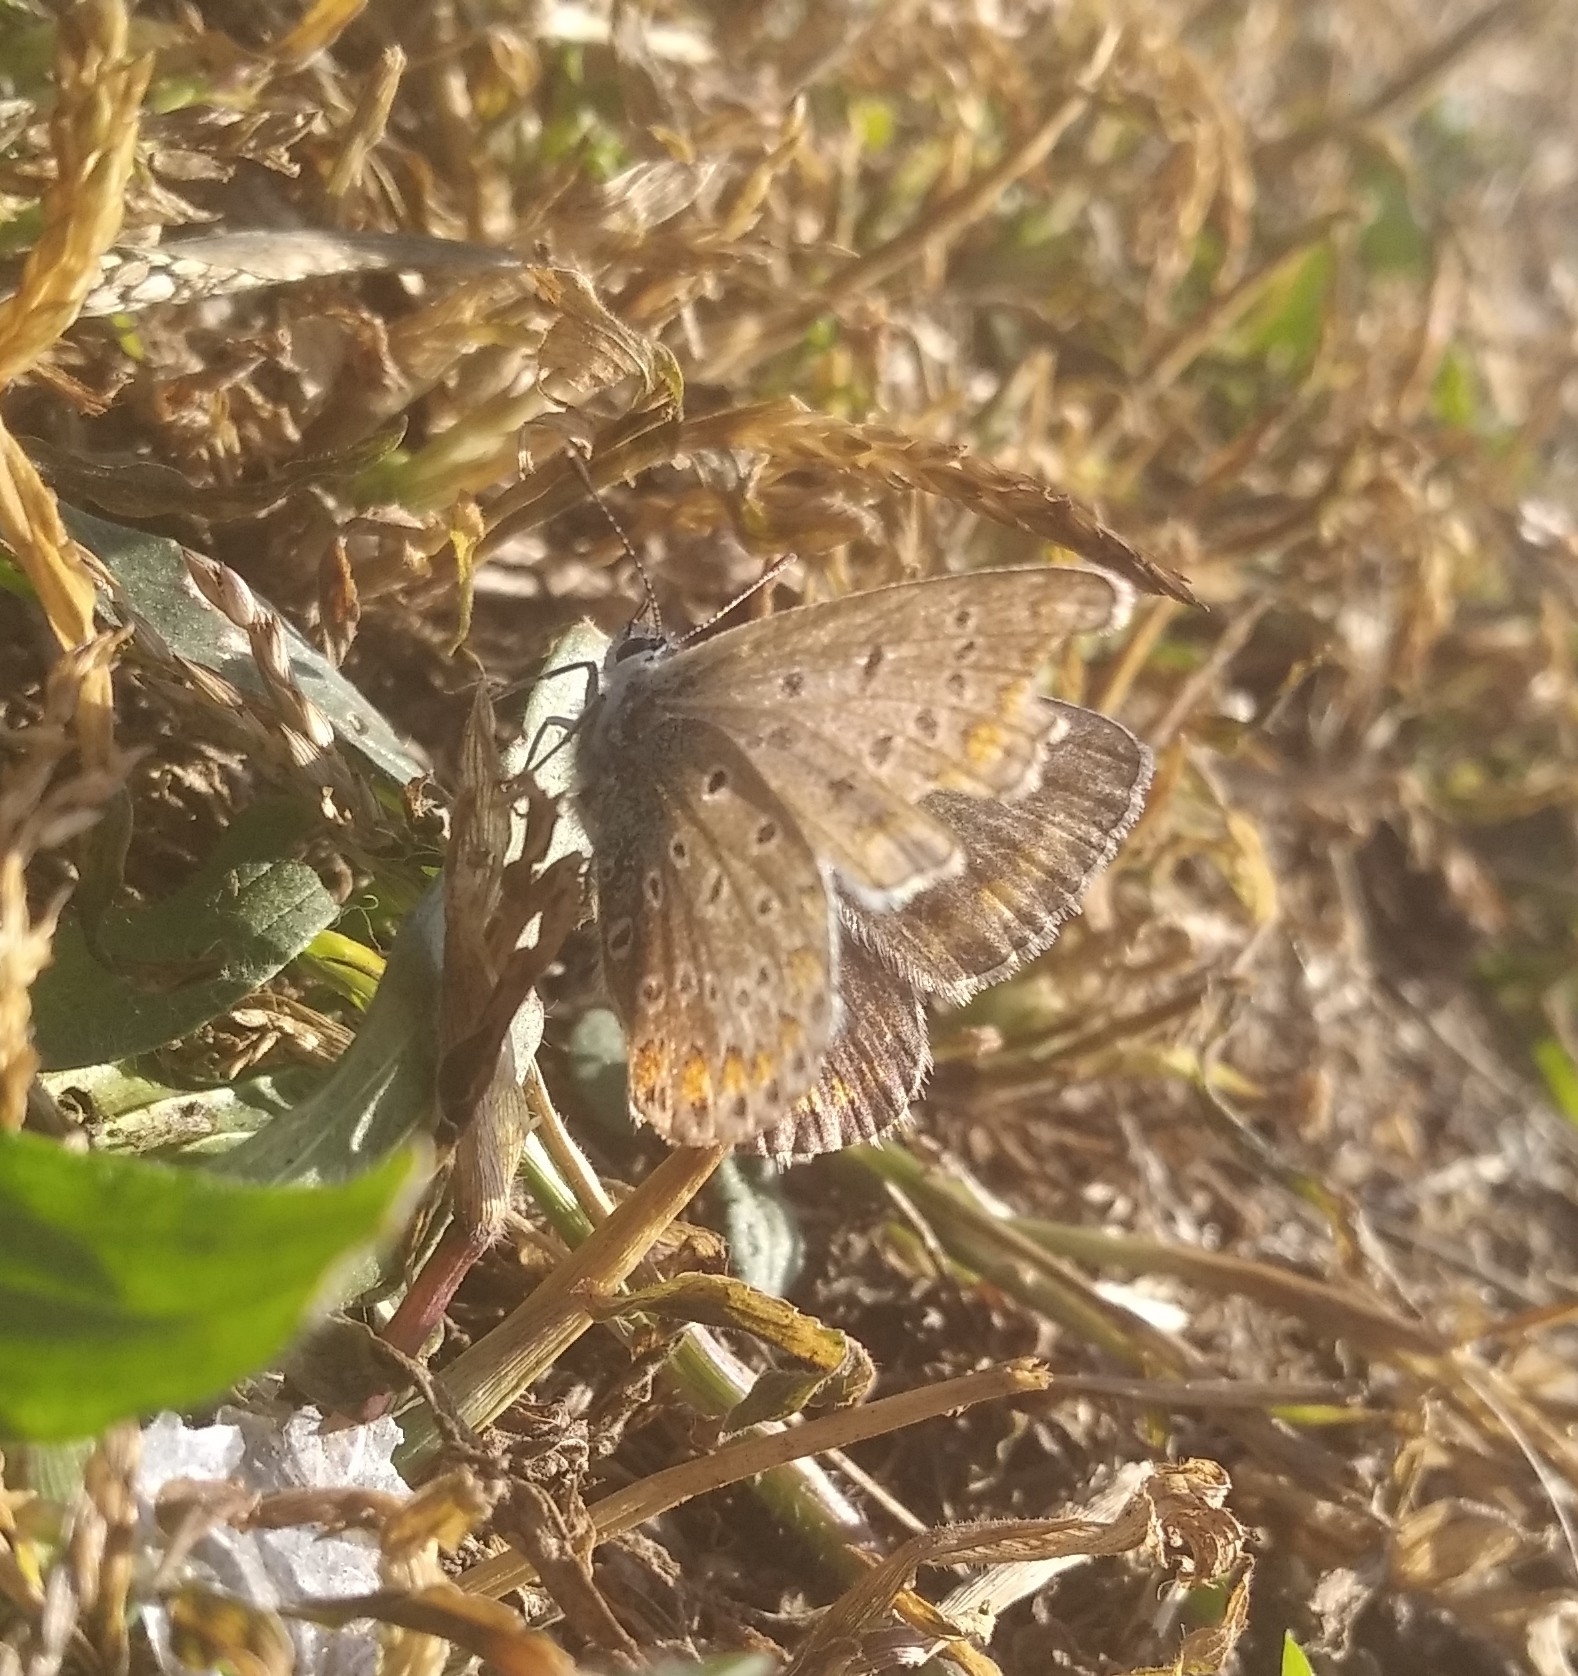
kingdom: Animalia
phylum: Arthropoda
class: Insecta
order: Lepidoptera
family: Lycaenidae
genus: Polyommatus
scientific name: Polyommatus icarus
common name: Common blue
